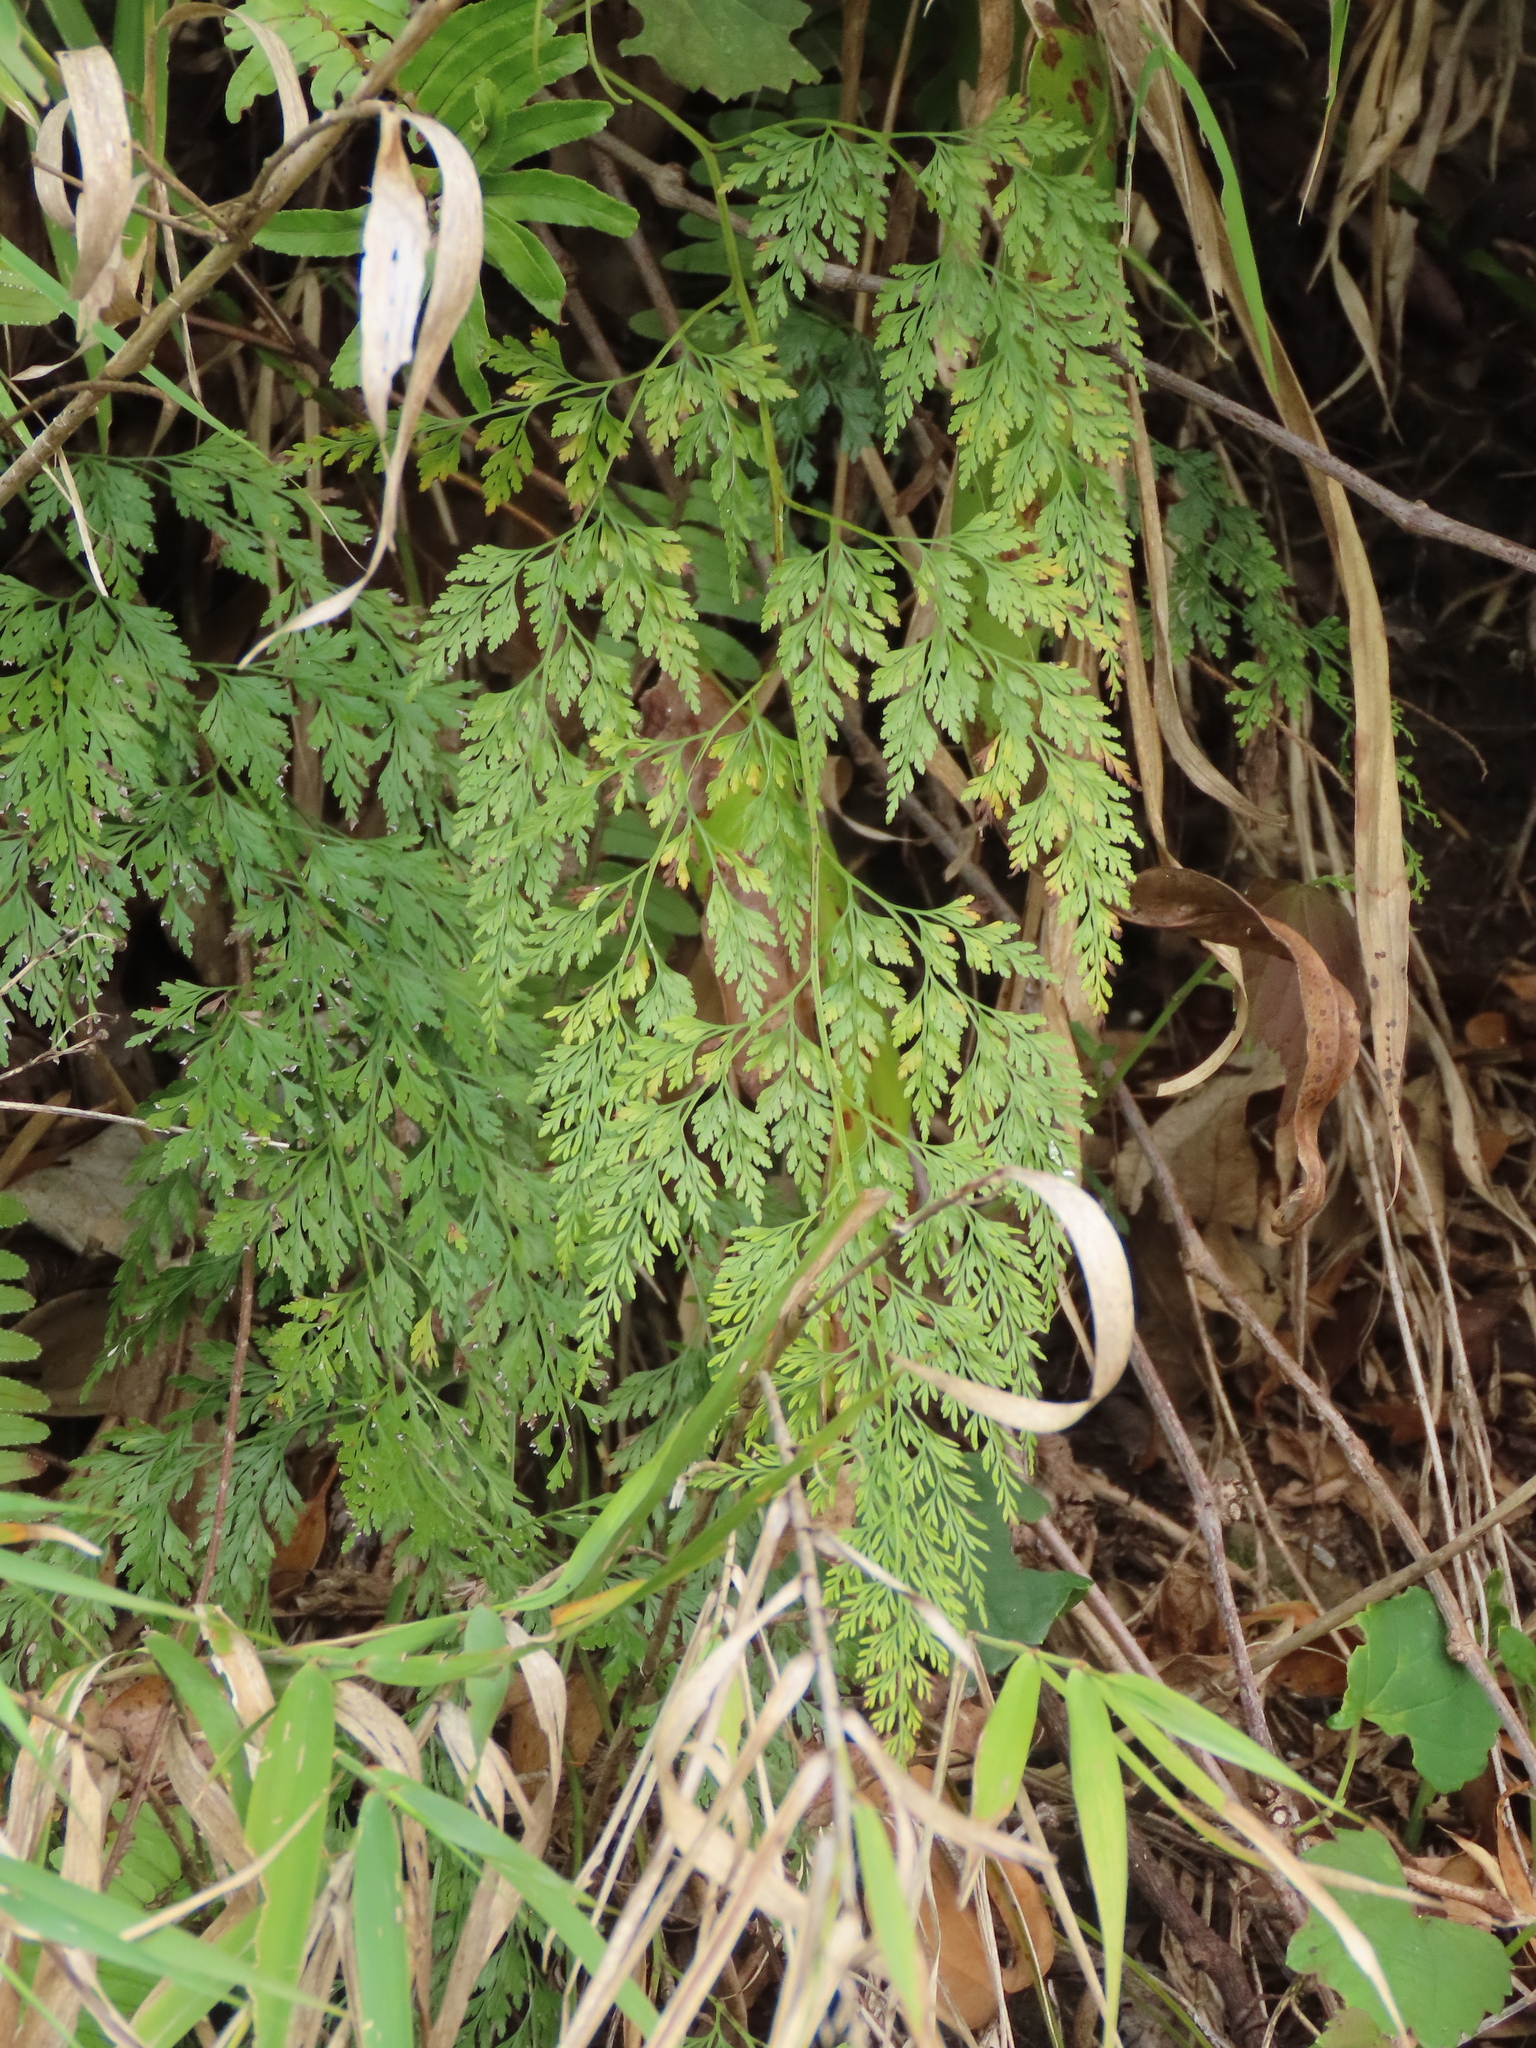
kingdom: Plantae
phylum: Tracheophyta
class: Polypodiopsida
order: Polypodiales
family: Pteridaceae
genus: Onychium
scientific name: Onychium japonicum
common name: Carrot fern
